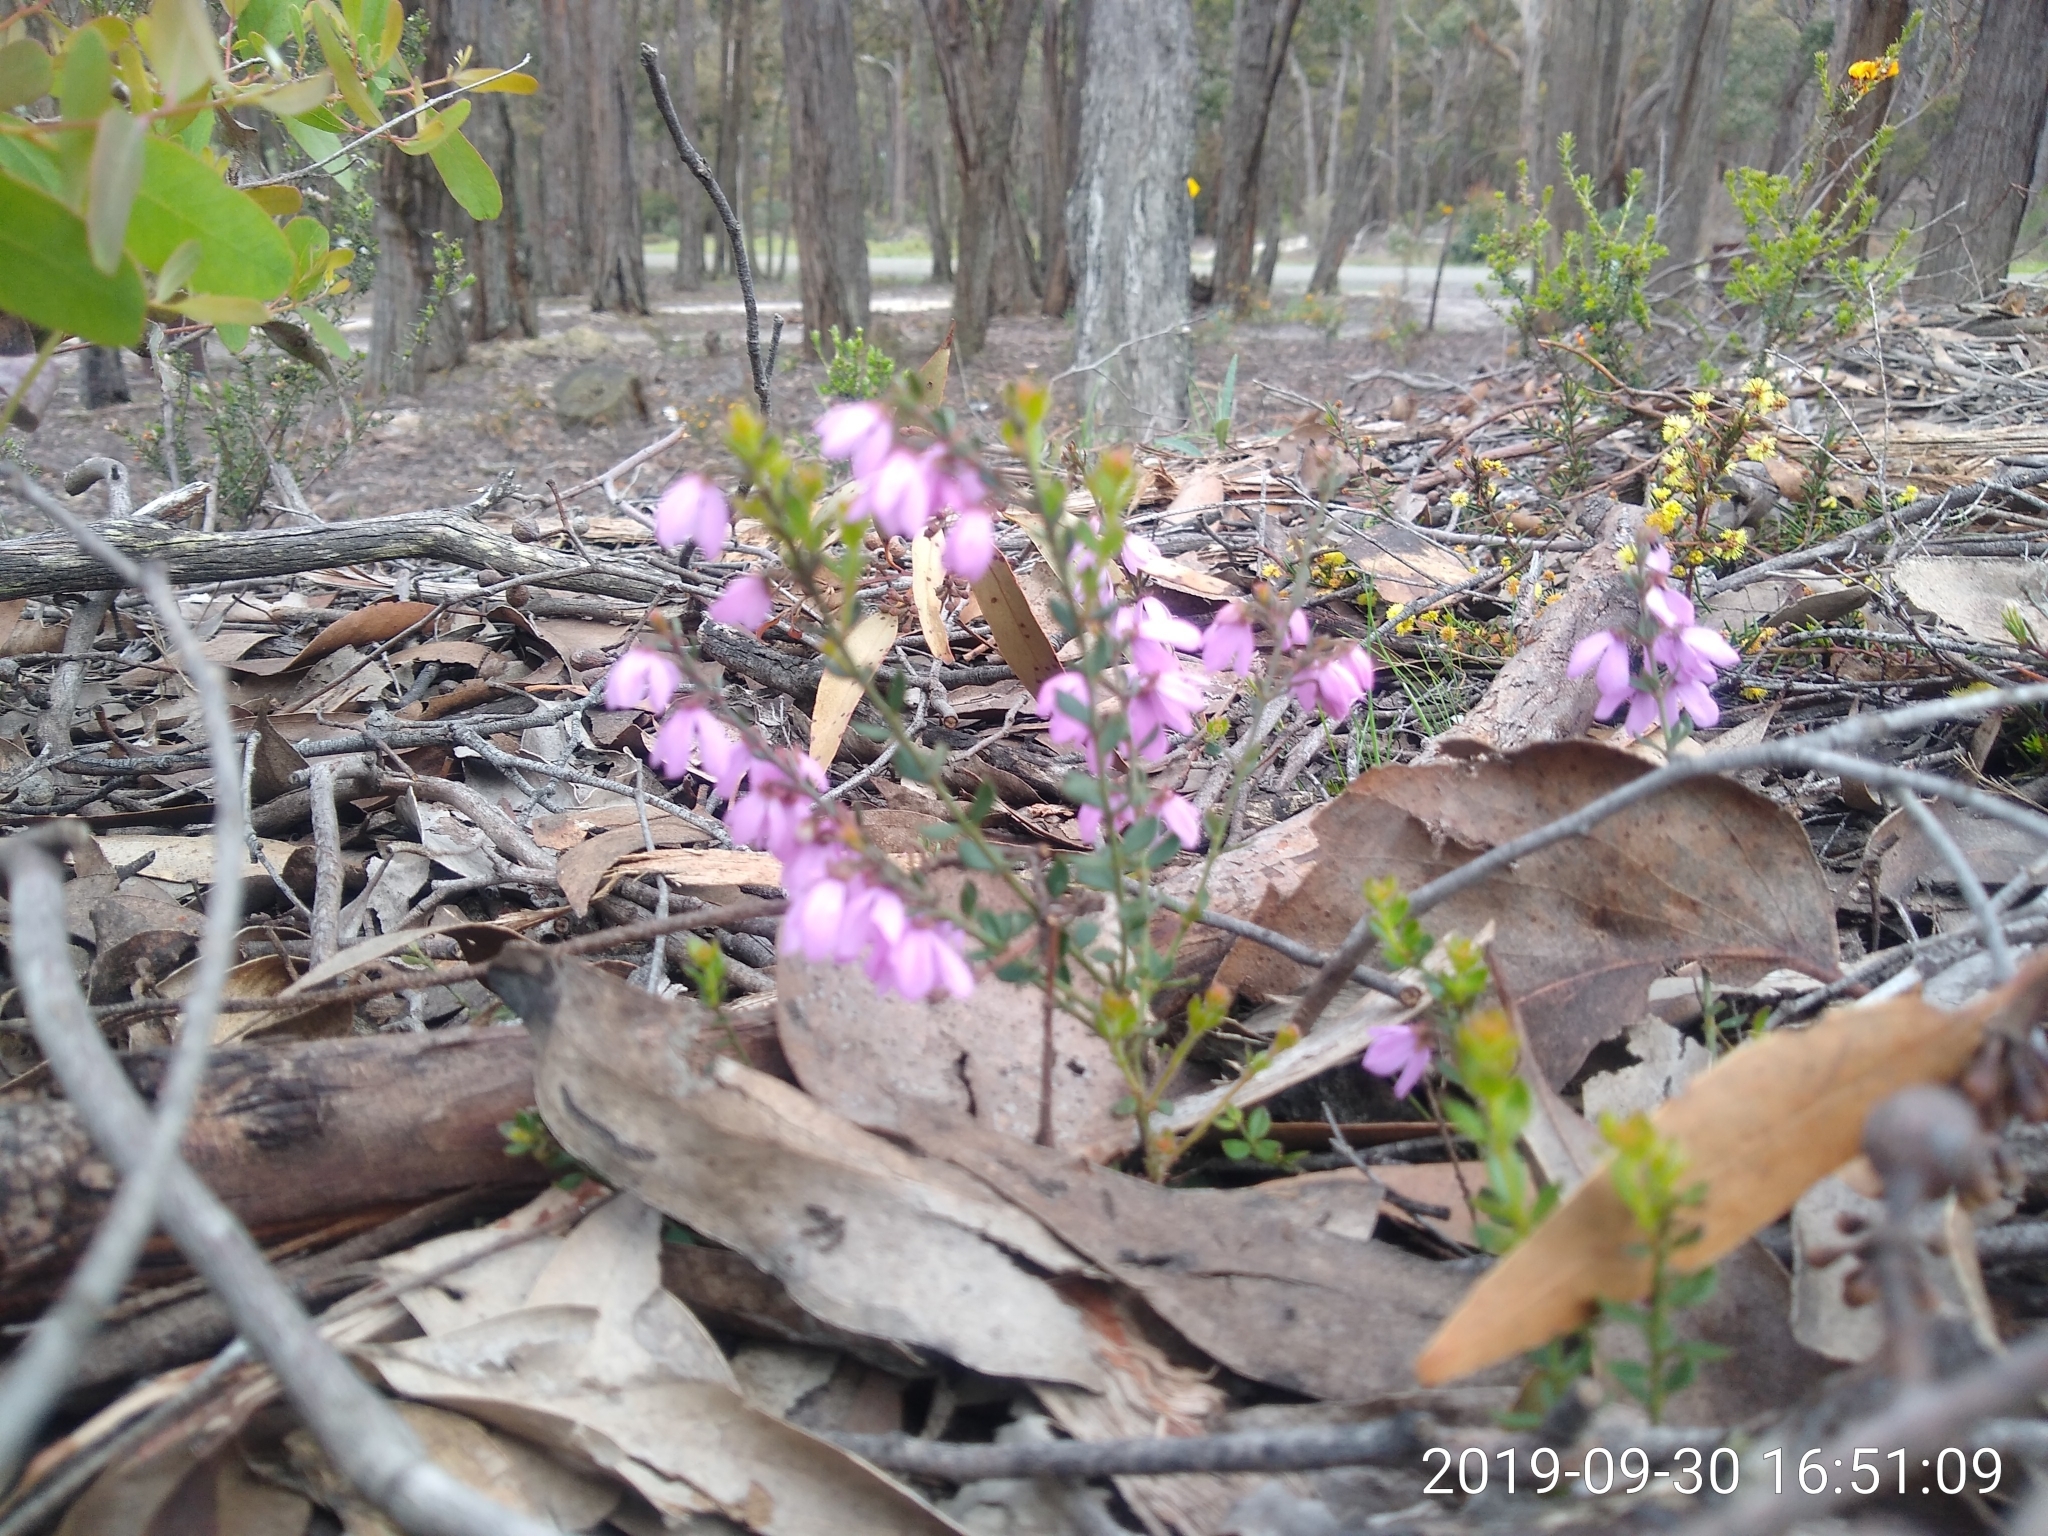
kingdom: Plantae
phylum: Tracheophyta
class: Magnoliopsida
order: Oxalidales
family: Elaeocarpaceae
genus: Tetratheca
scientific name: Tetratheca ciliata
